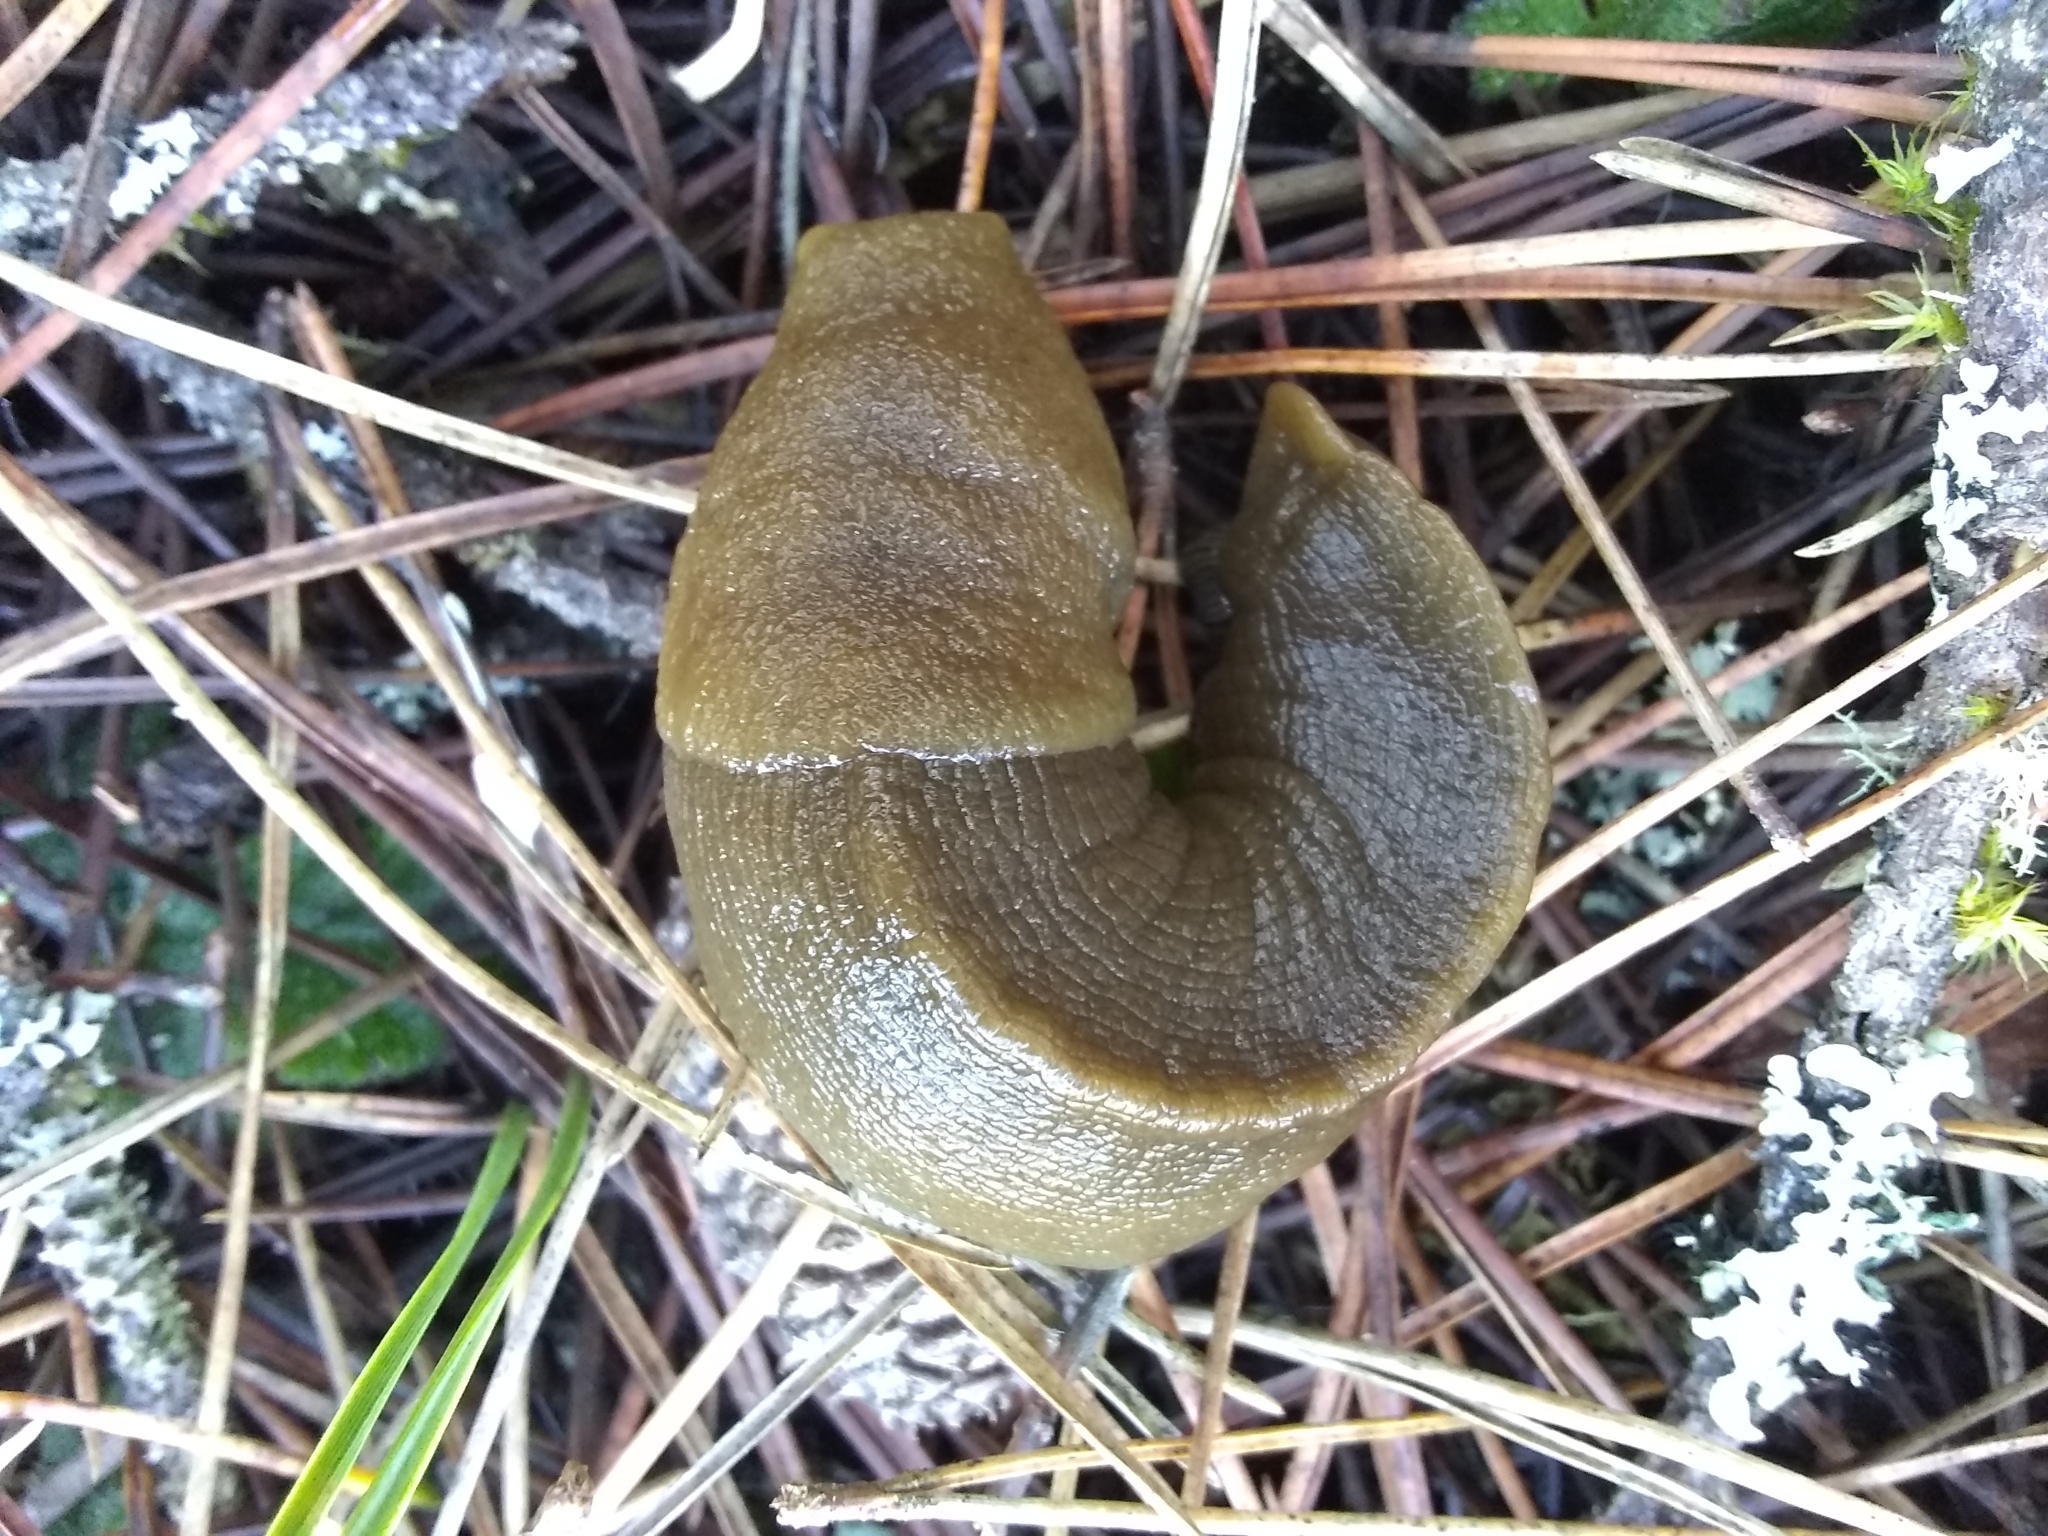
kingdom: Animalia
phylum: Mollusca
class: Gastropoda
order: Stylommatophora
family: Ariolimacidae
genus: Ariolimax
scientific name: Ariolimax buttoni
